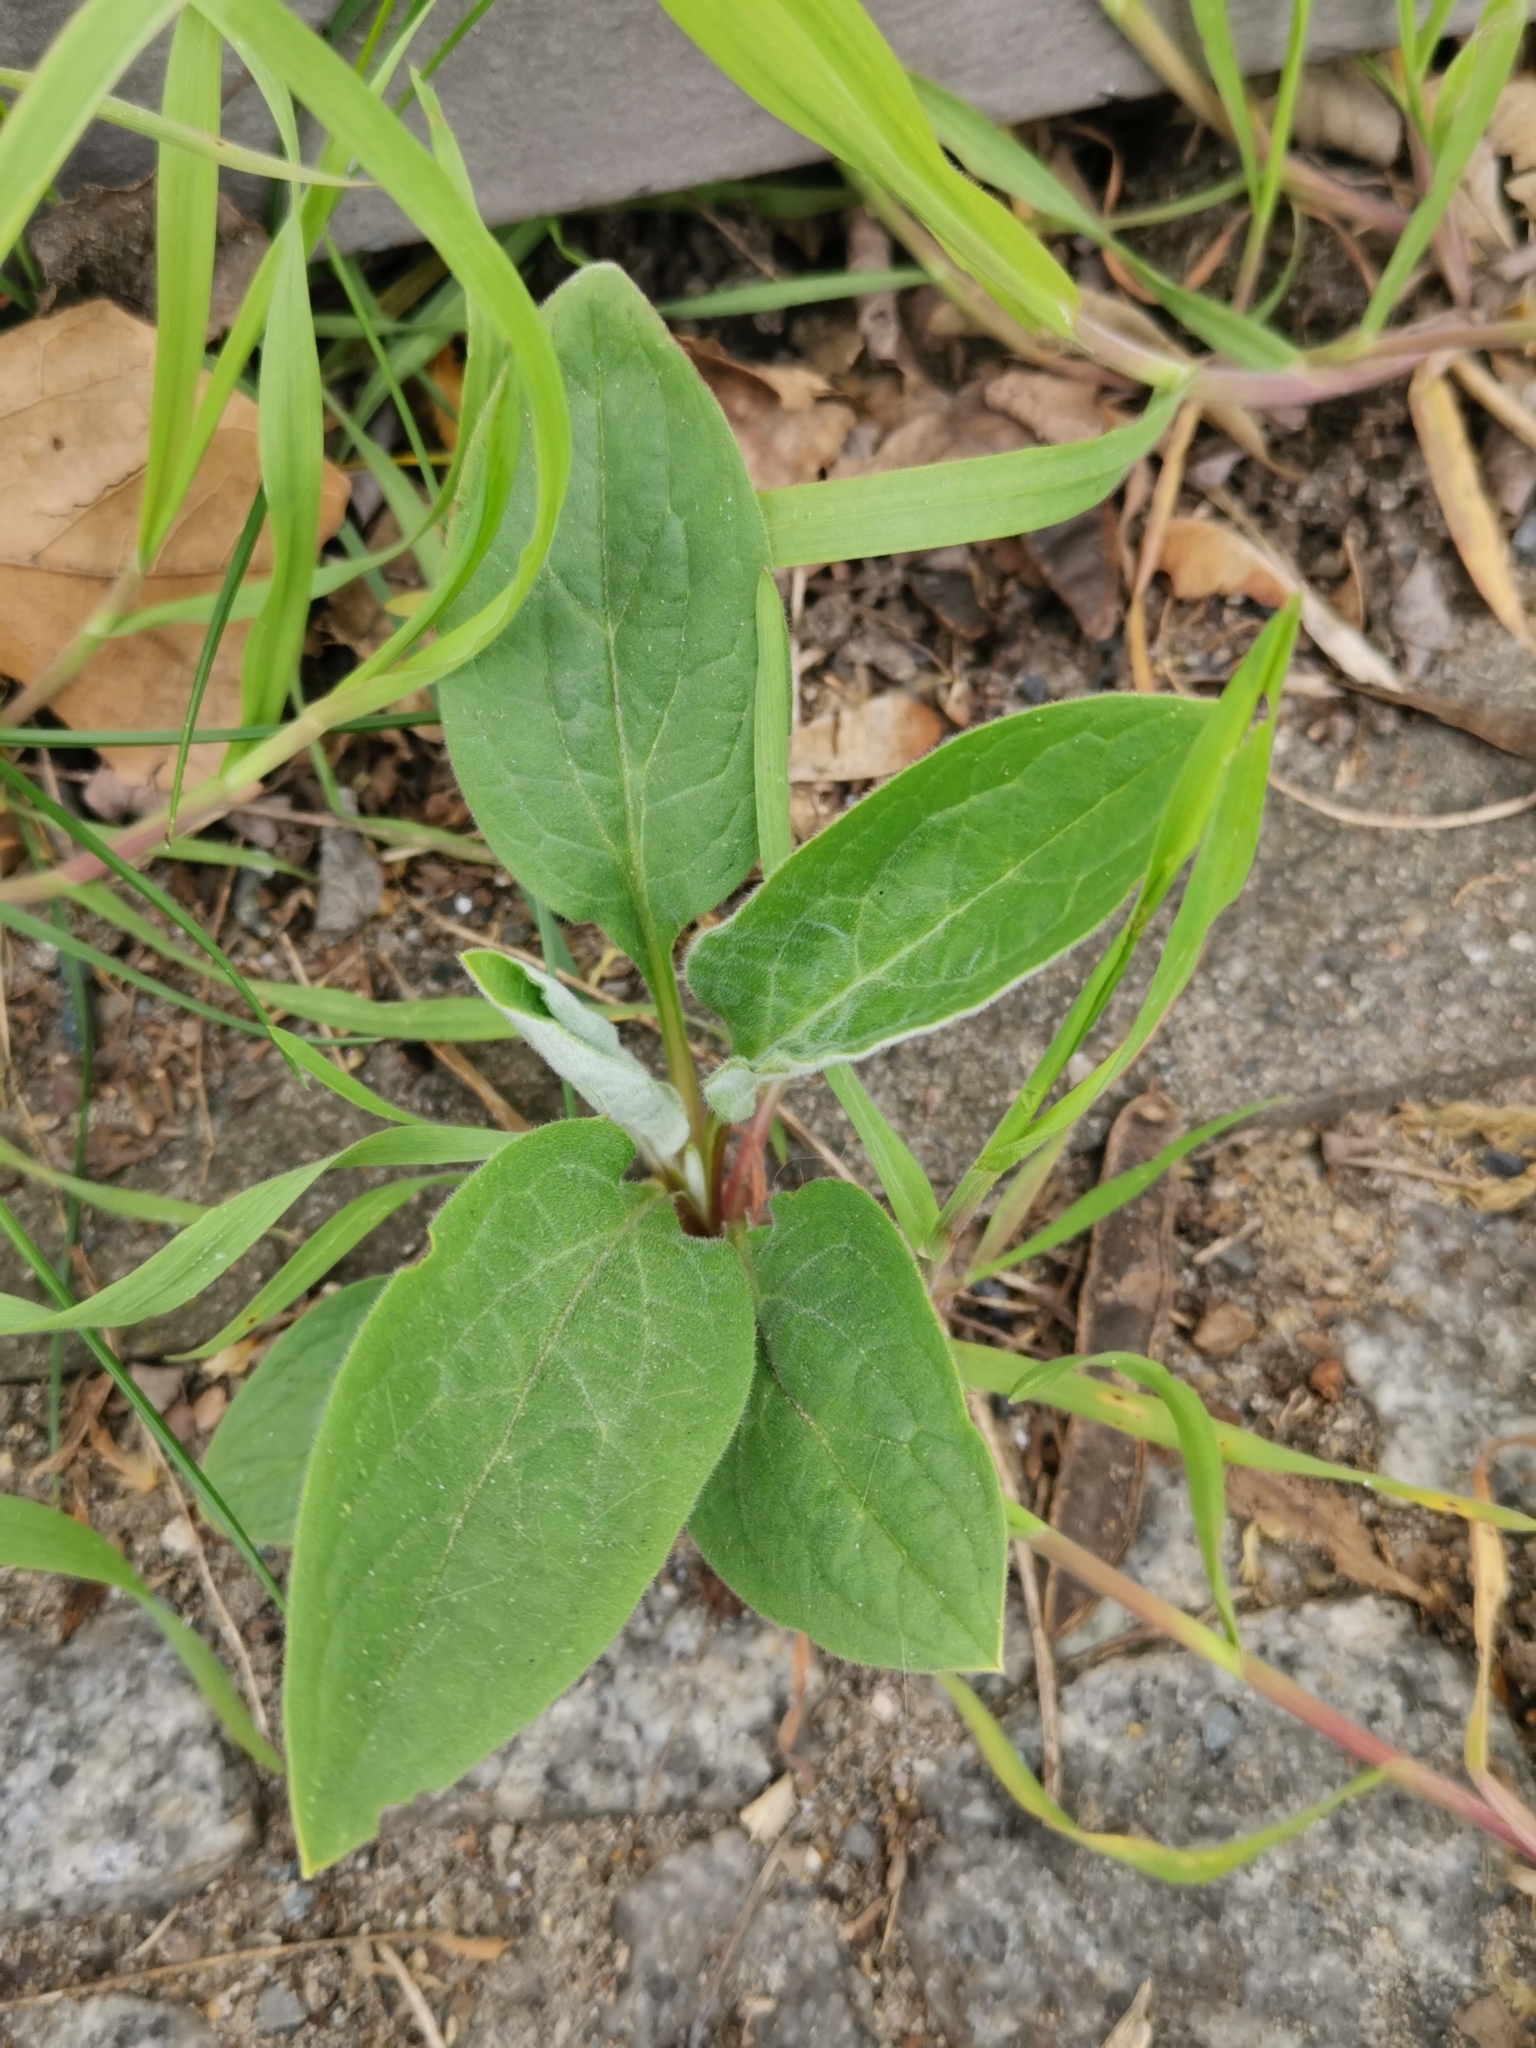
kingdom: Plantae
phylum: Tracheophyta
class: Magnoliopsida
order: Boraginales
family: Boraginaceae
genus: Cynoglossum
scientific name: Cynoglossum officinale
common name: Hound's-tongue
